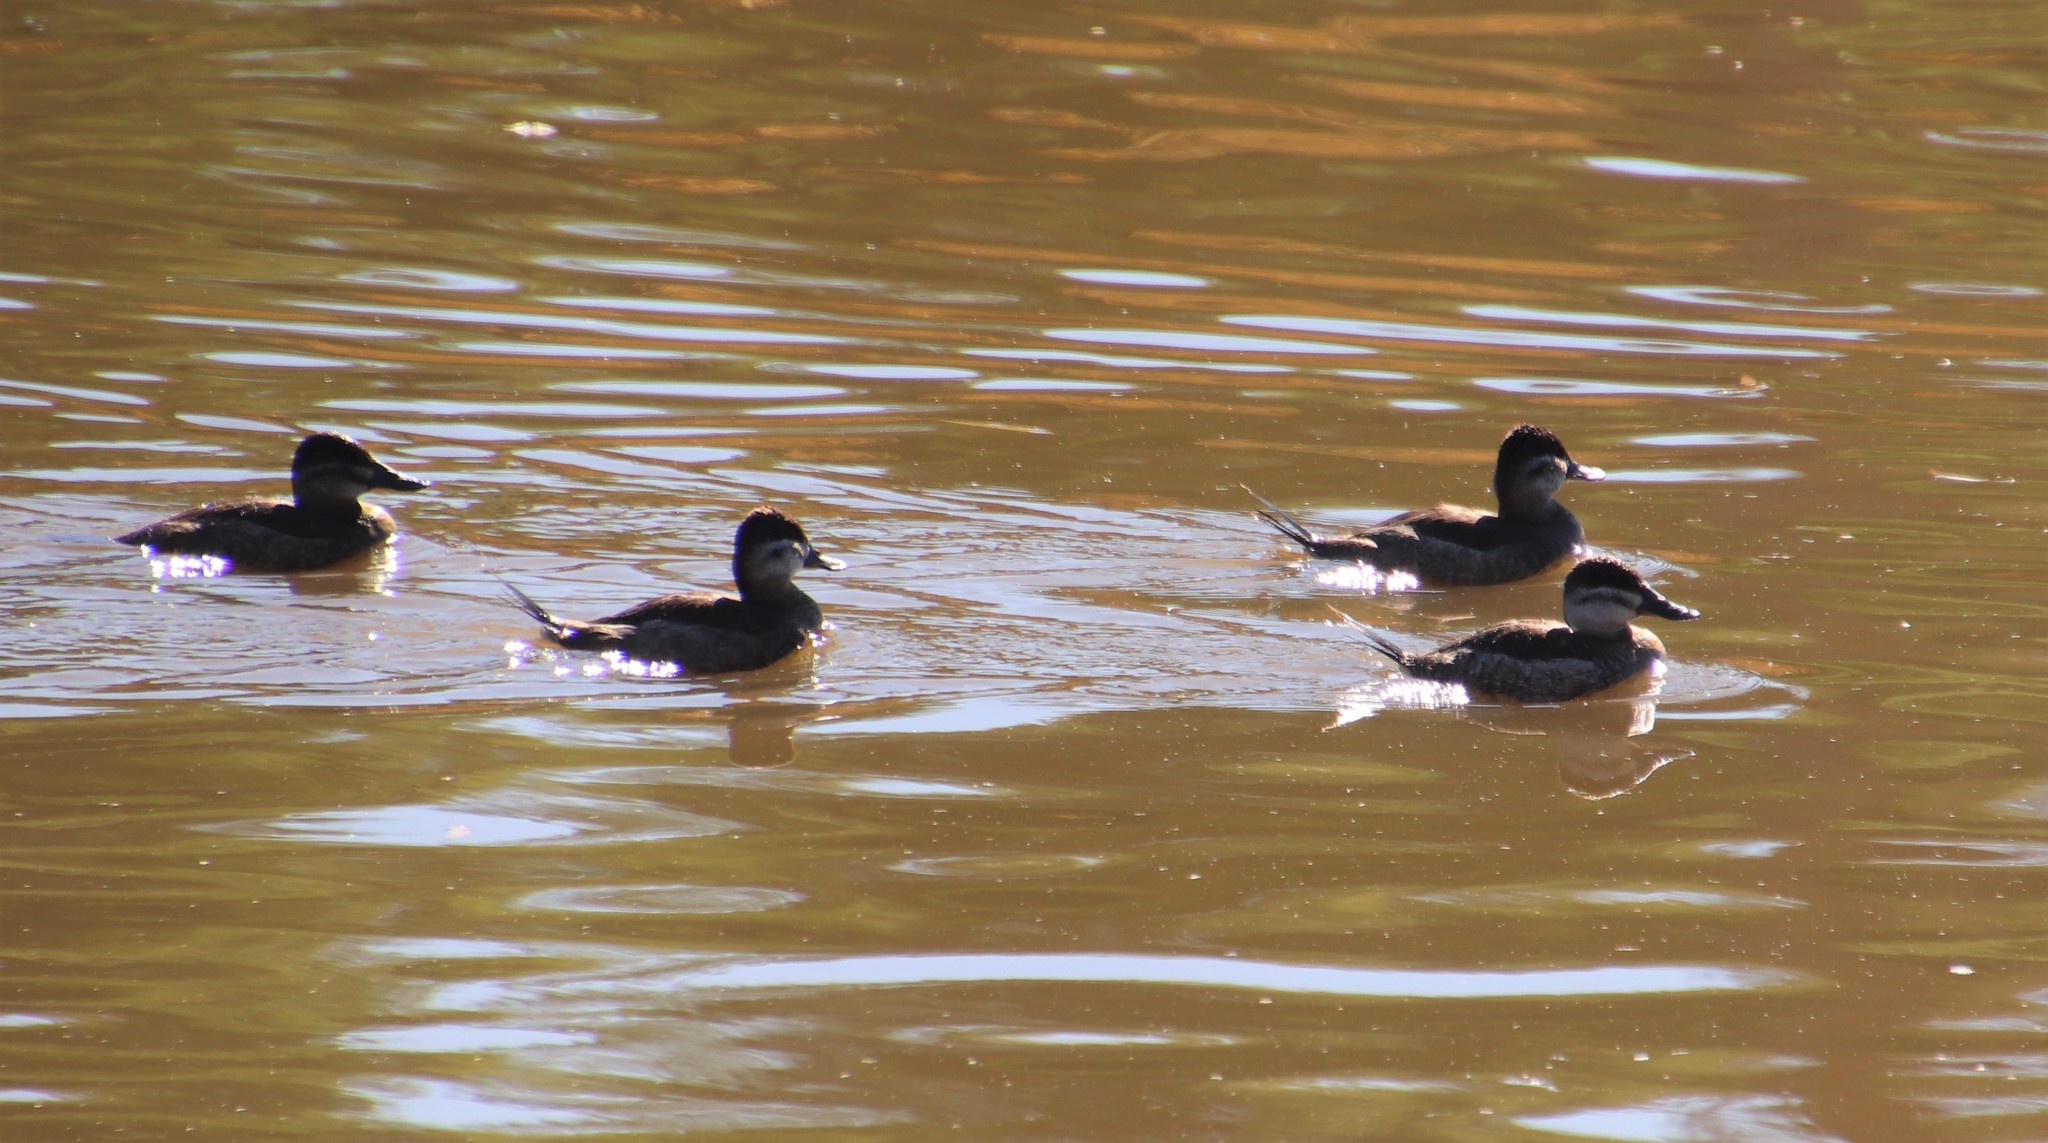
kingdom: Animalia
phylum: Chordata
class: Aves
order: Anseriformes
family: Anatidae
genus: Oxyura
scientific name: Oxyura jamaicensis
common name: Ruddy duck
